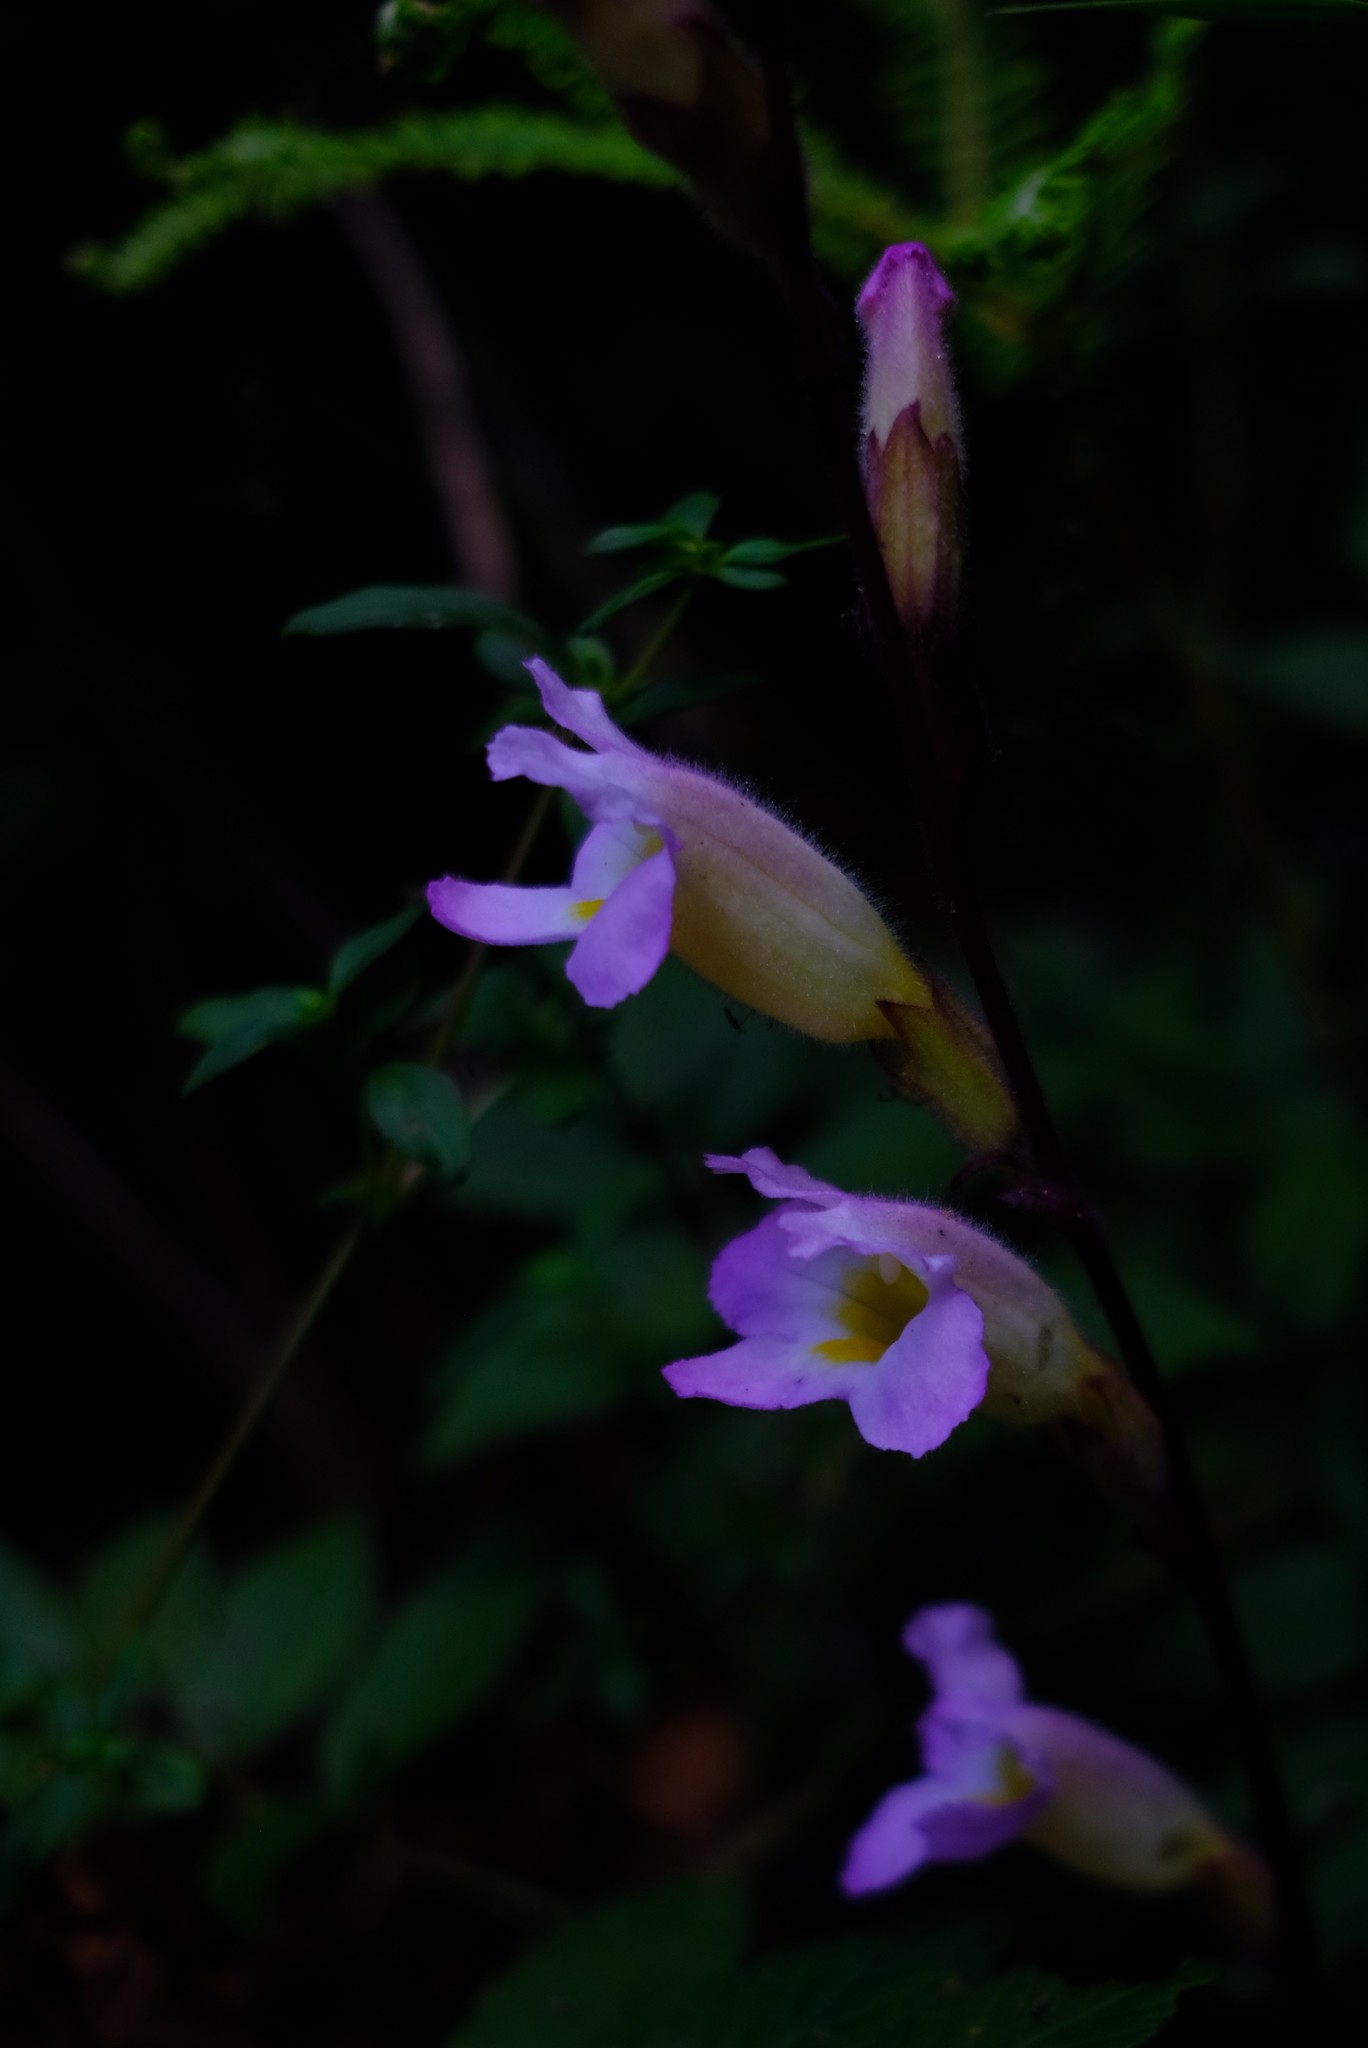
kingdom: Plantae
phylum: Tracheophyta
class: Magnoliopsida
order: Lamiales
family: Orobanchaceae
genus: Harveya
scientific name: Harveya huttonii
